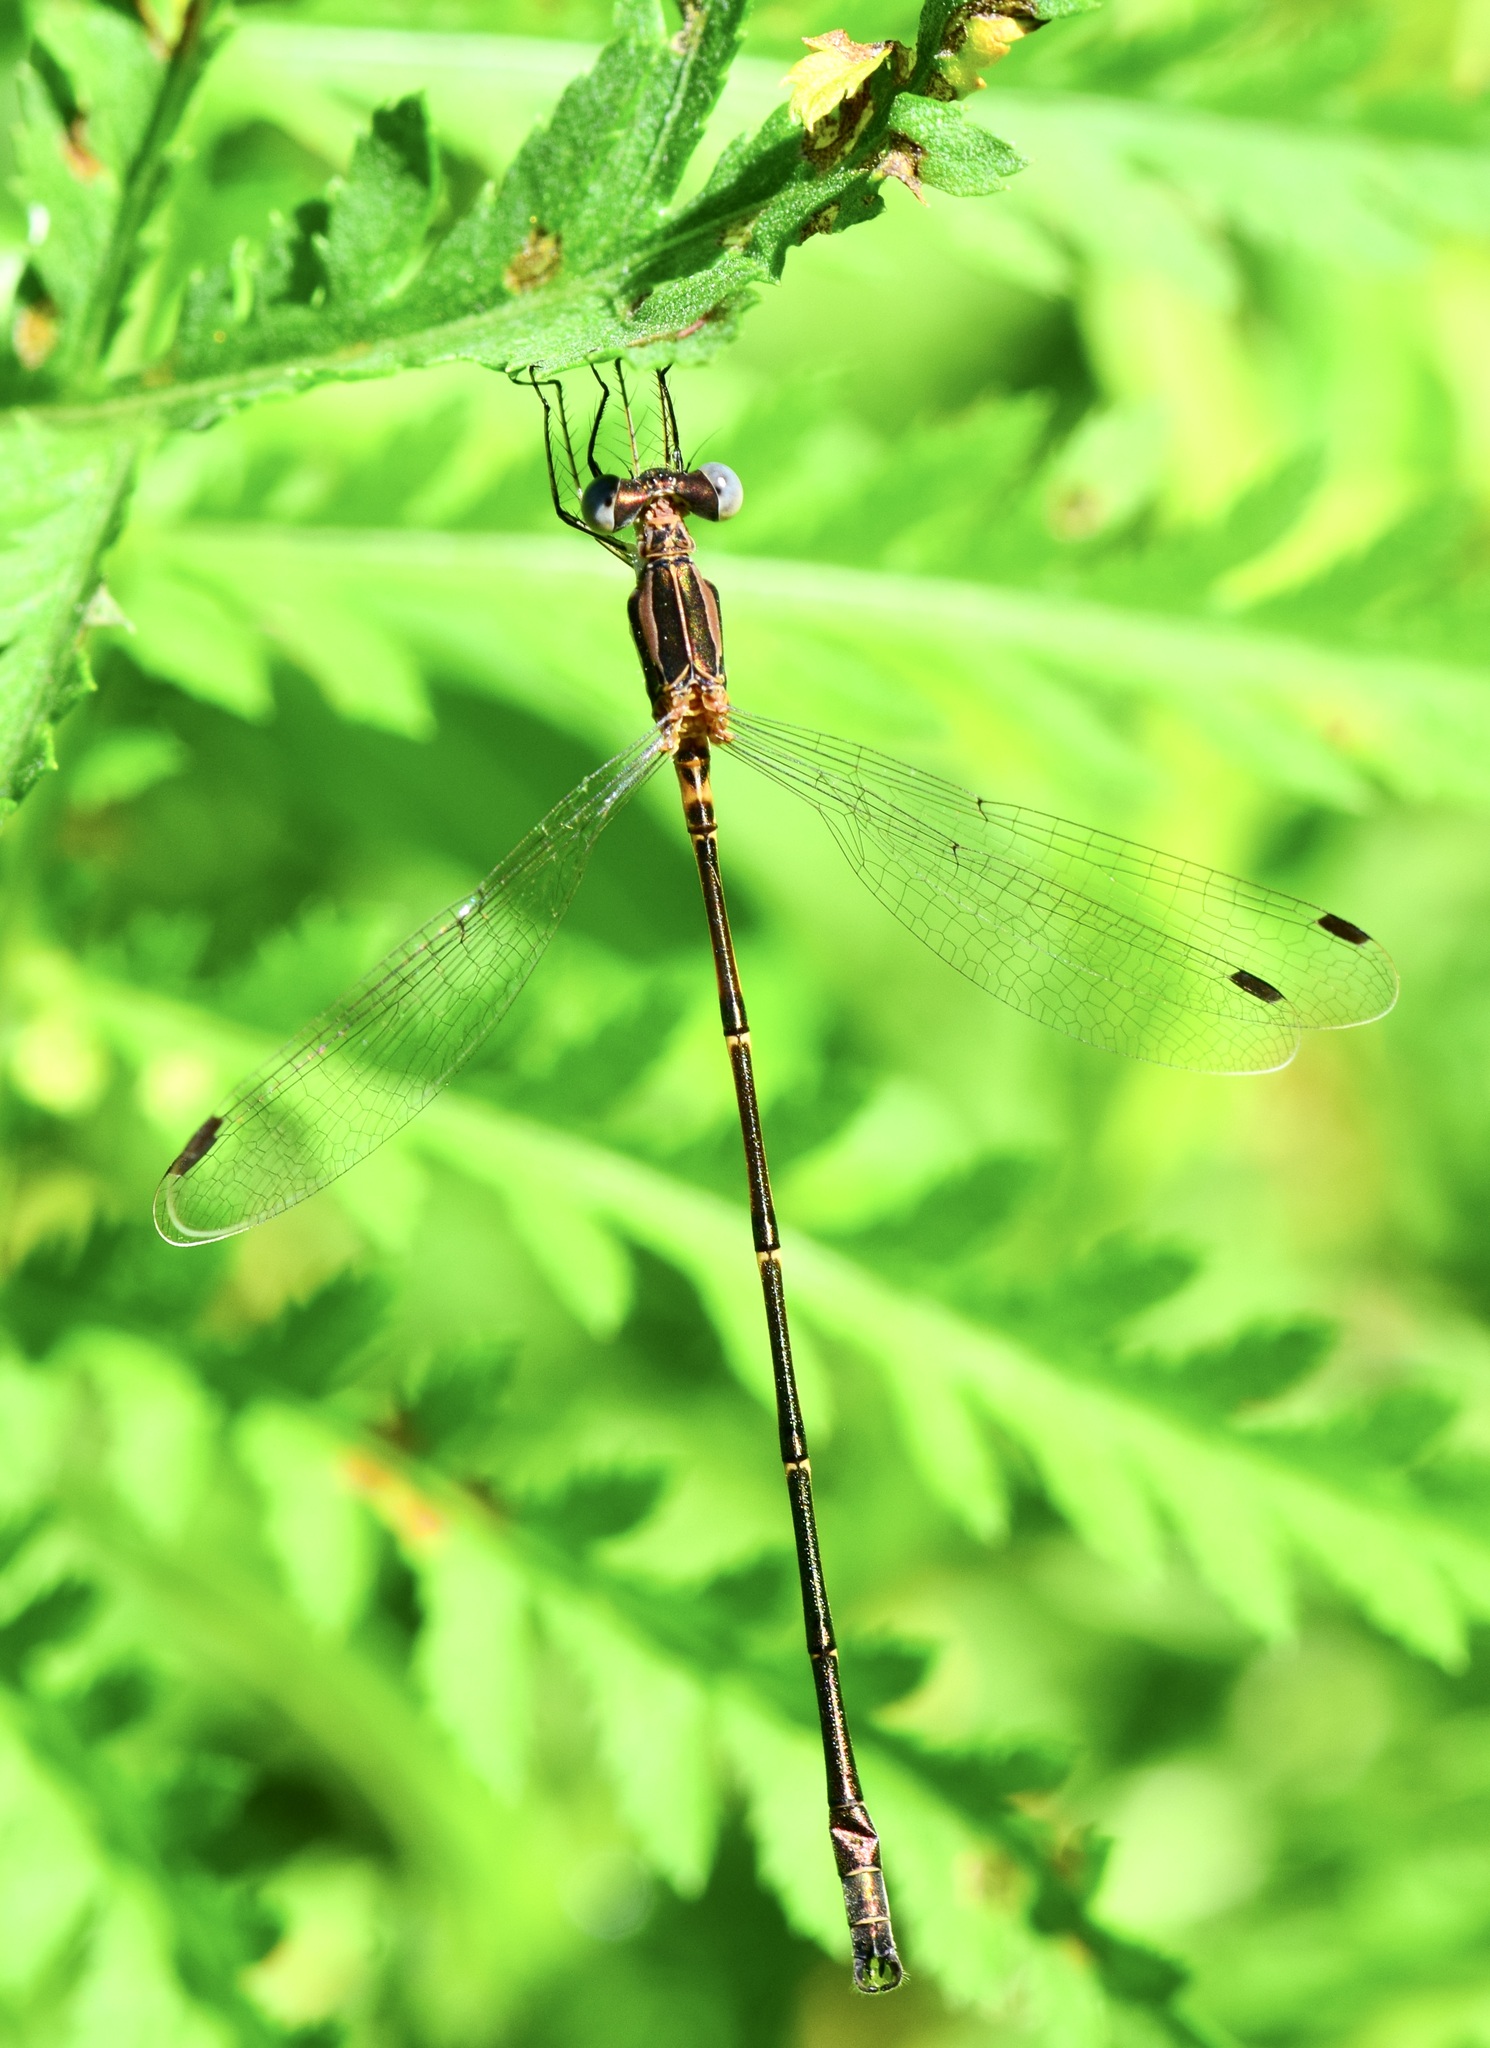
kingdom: Animalia
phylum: Arthropoda
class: Insecta
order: Odonata
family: Lestidae
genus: Lestes
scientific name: Lestes rectangularis
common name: Slender spreadwing
